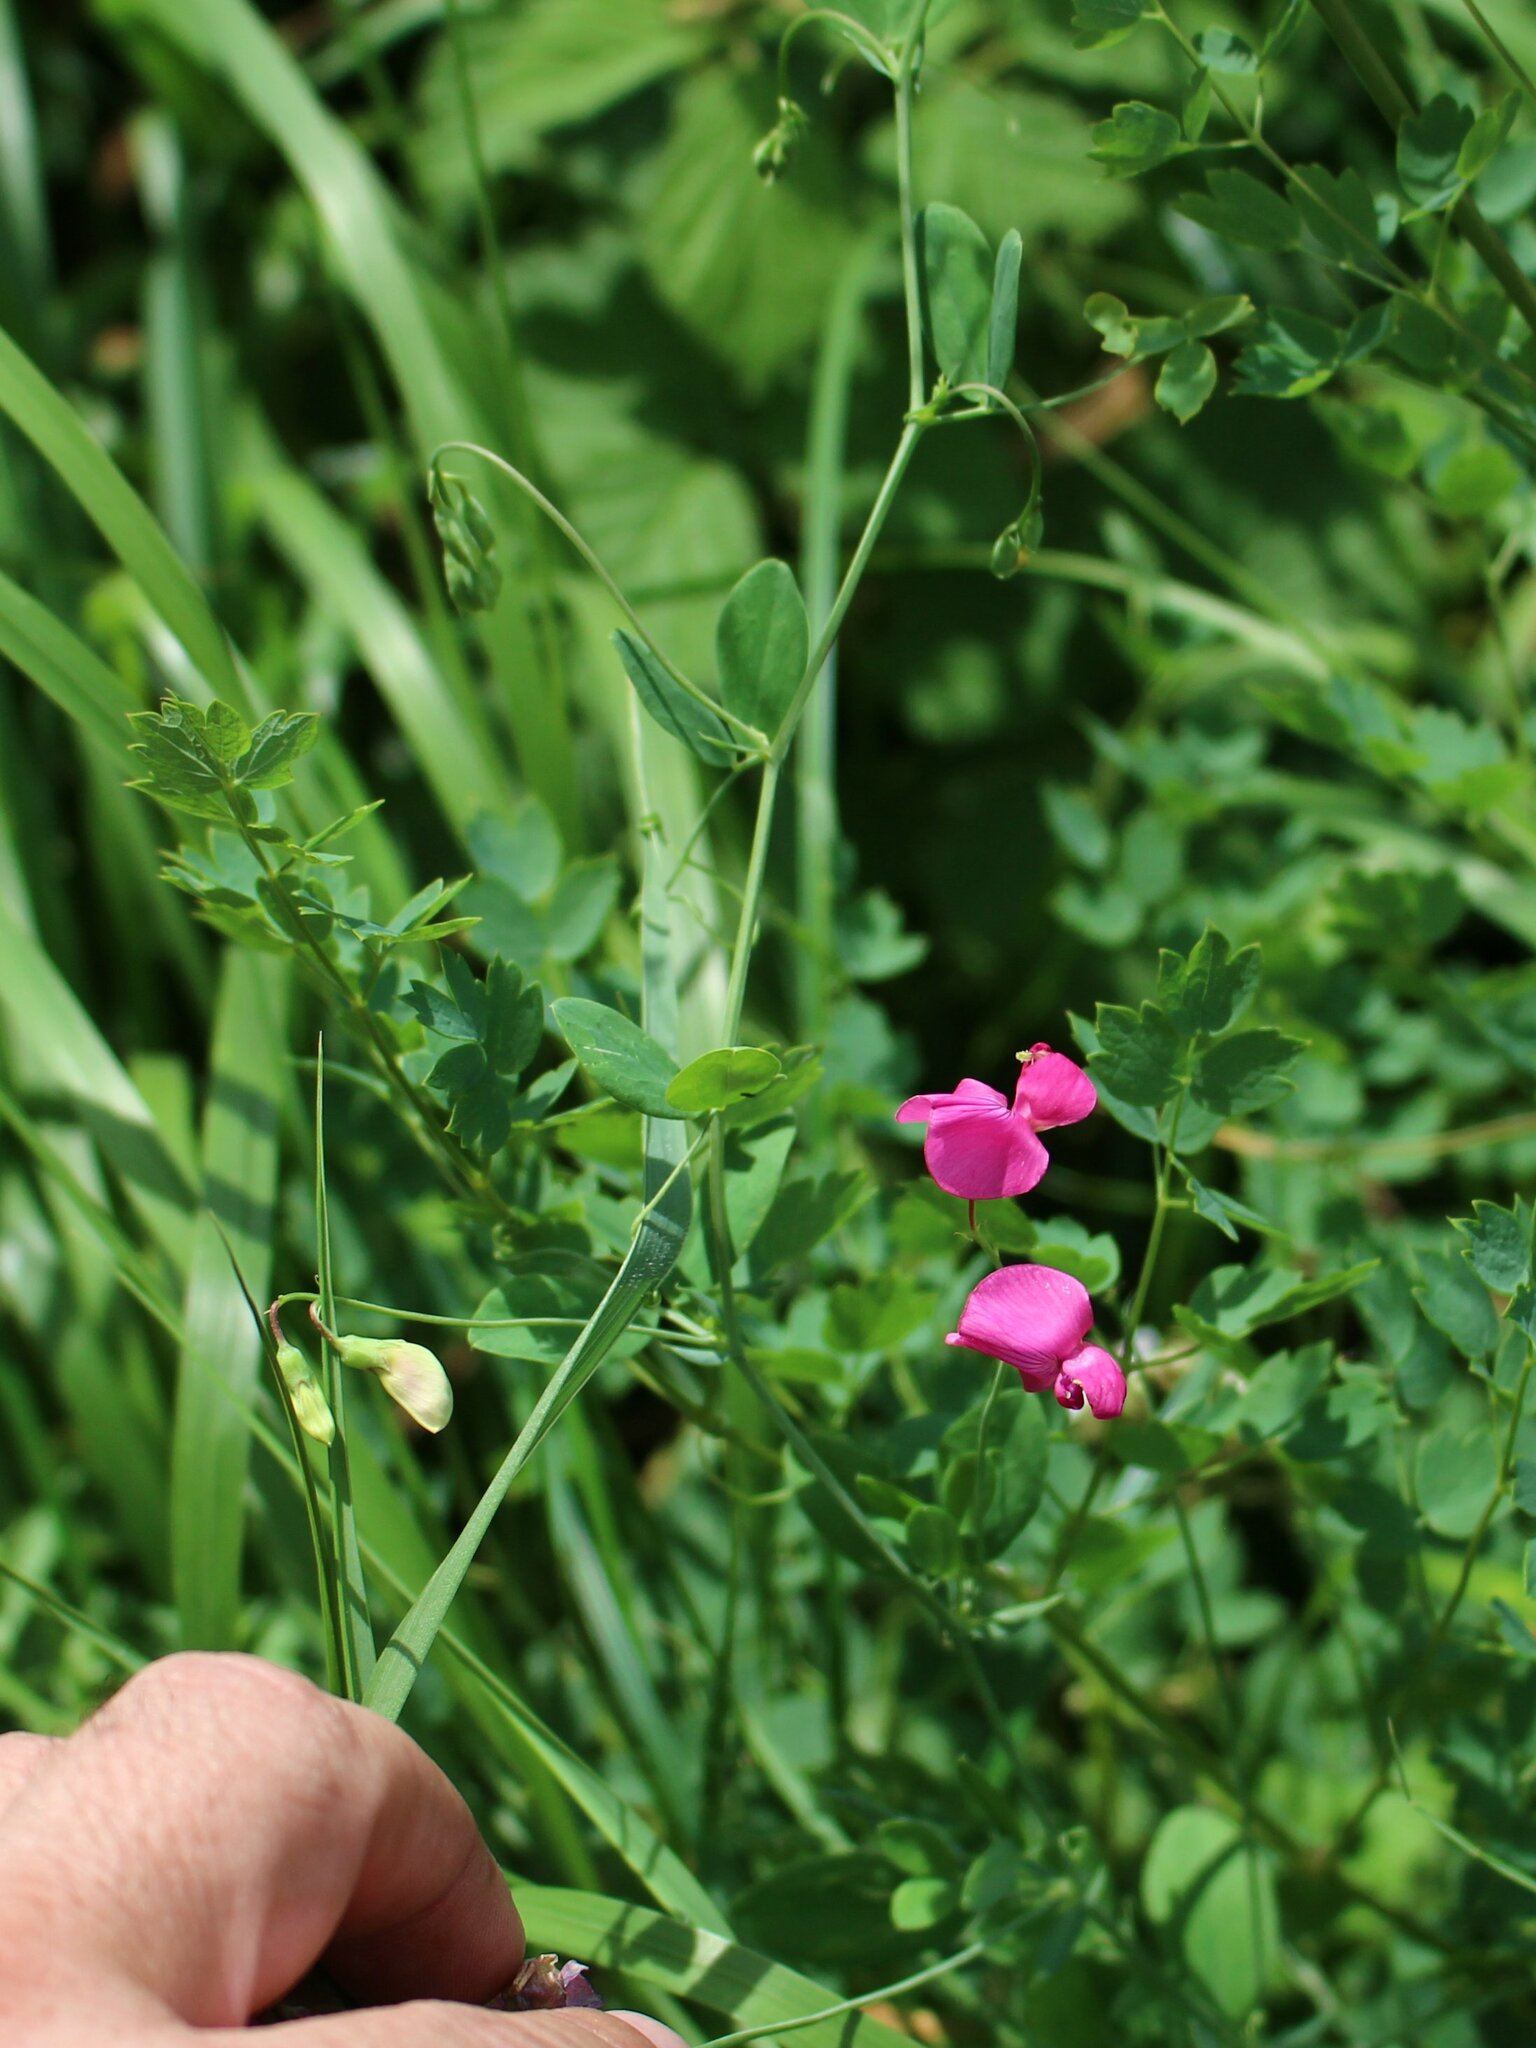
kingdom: Plantae
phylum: Tracheophyta
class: Magnoliopsida
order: Fabales
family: Fabaceae
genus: Lathyrus
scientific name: Lathyrus tuberosus
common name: Tuberous pea
